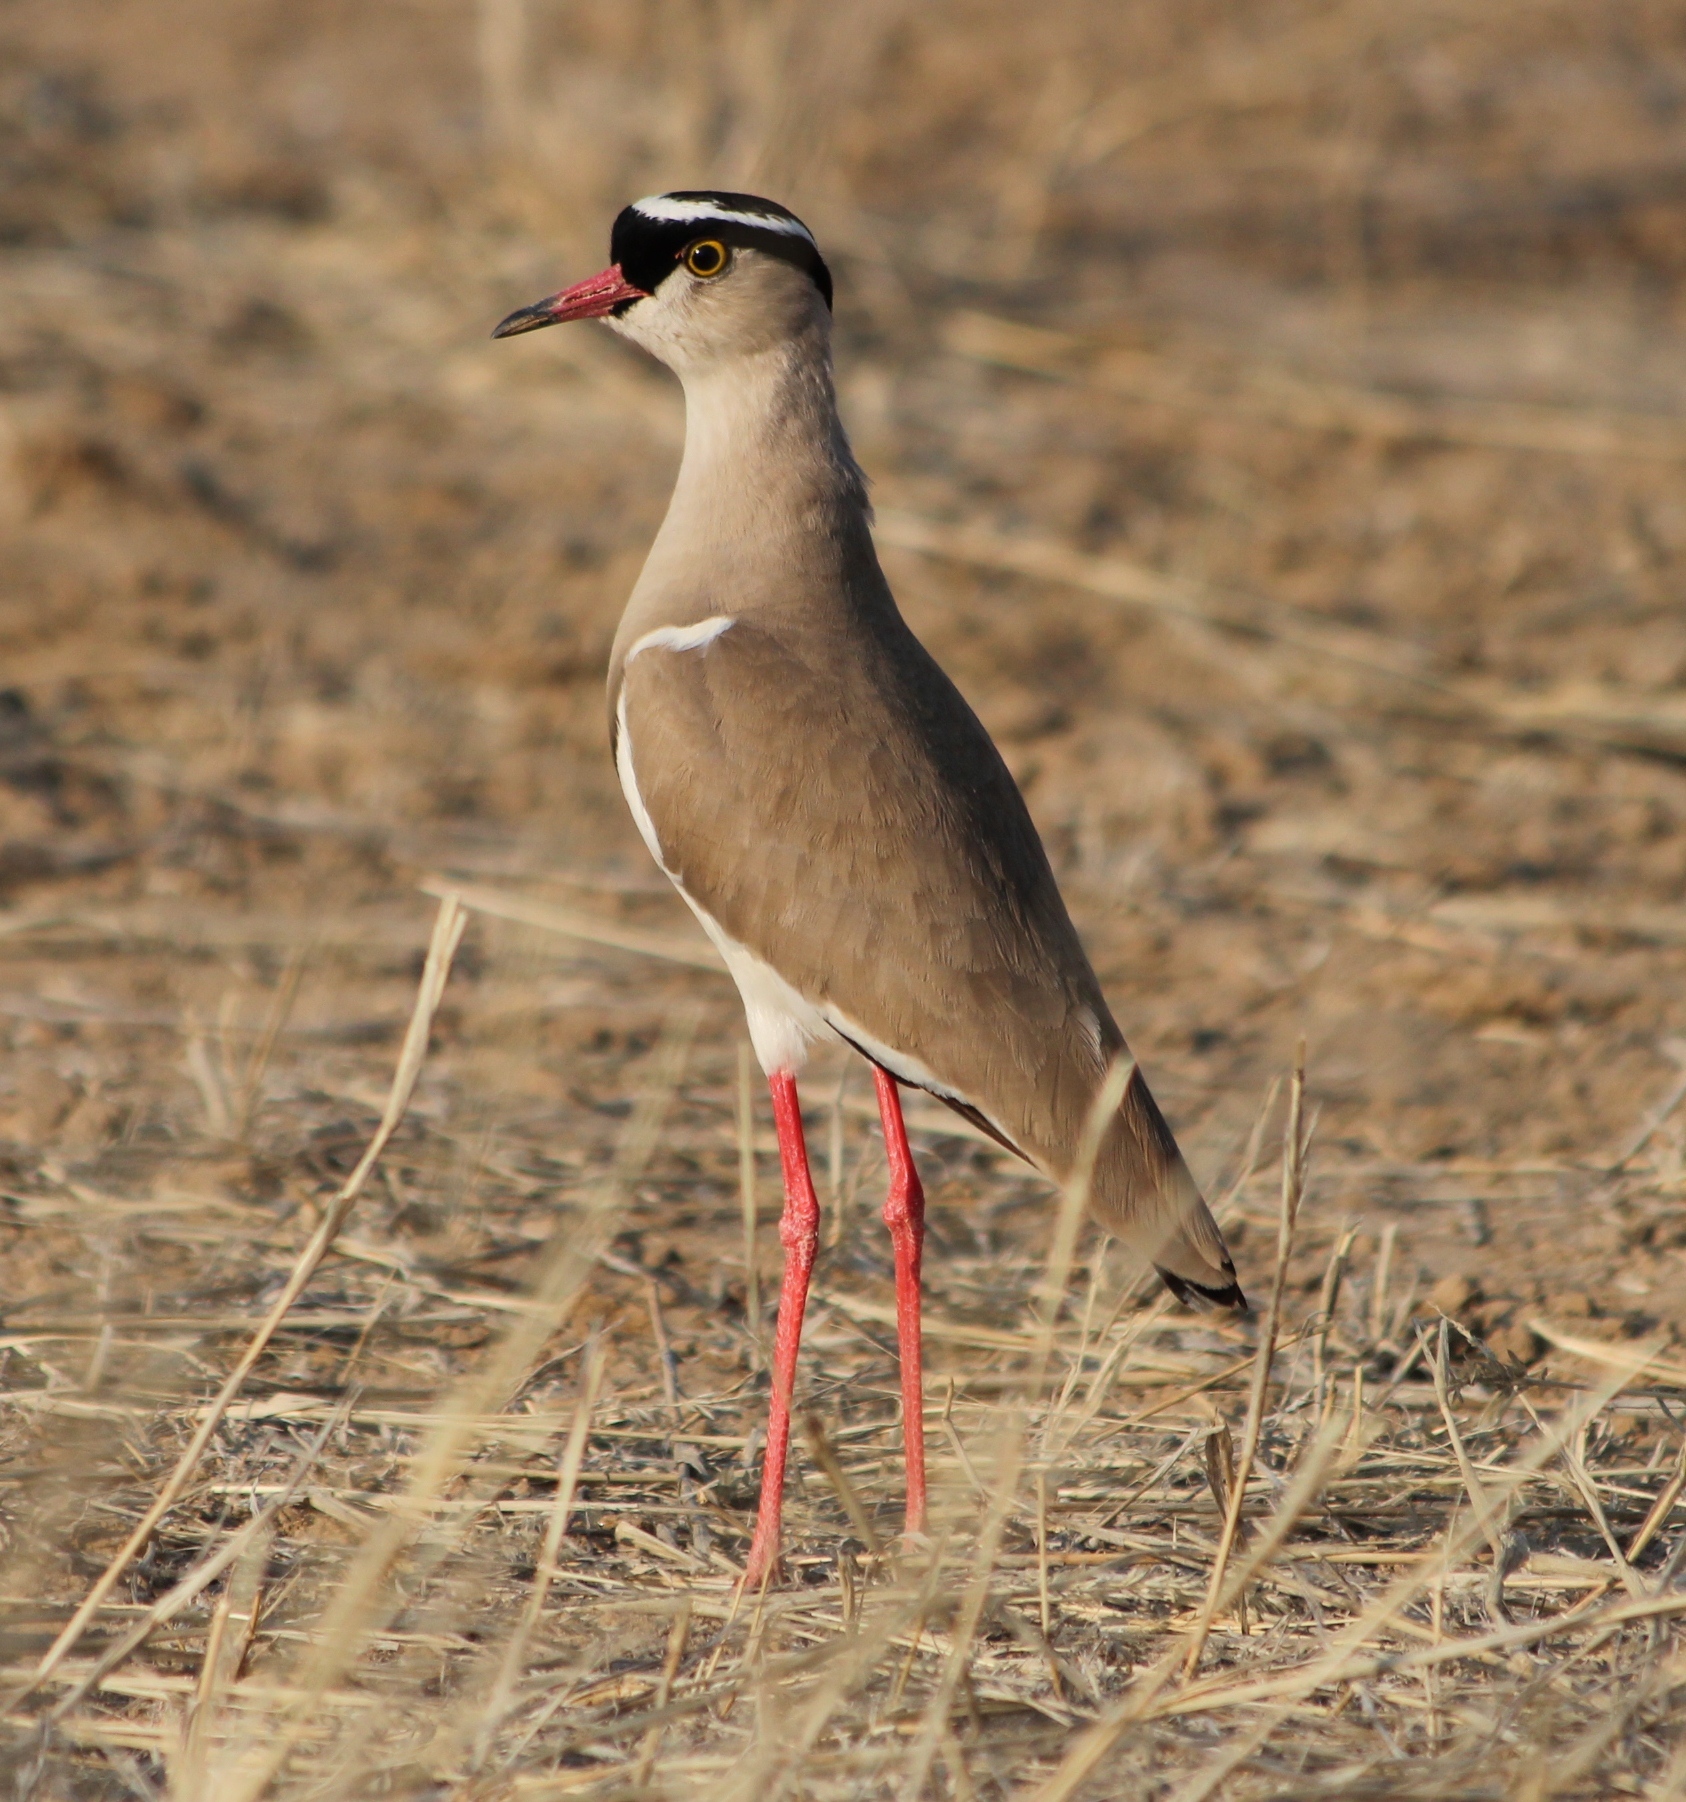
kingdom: Animalia
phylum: Chordata
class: Aves
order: Charadriiformes
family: Charadriidae
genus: Vanellus
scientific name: Vanellus coronatus
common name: Crowned lapwing
